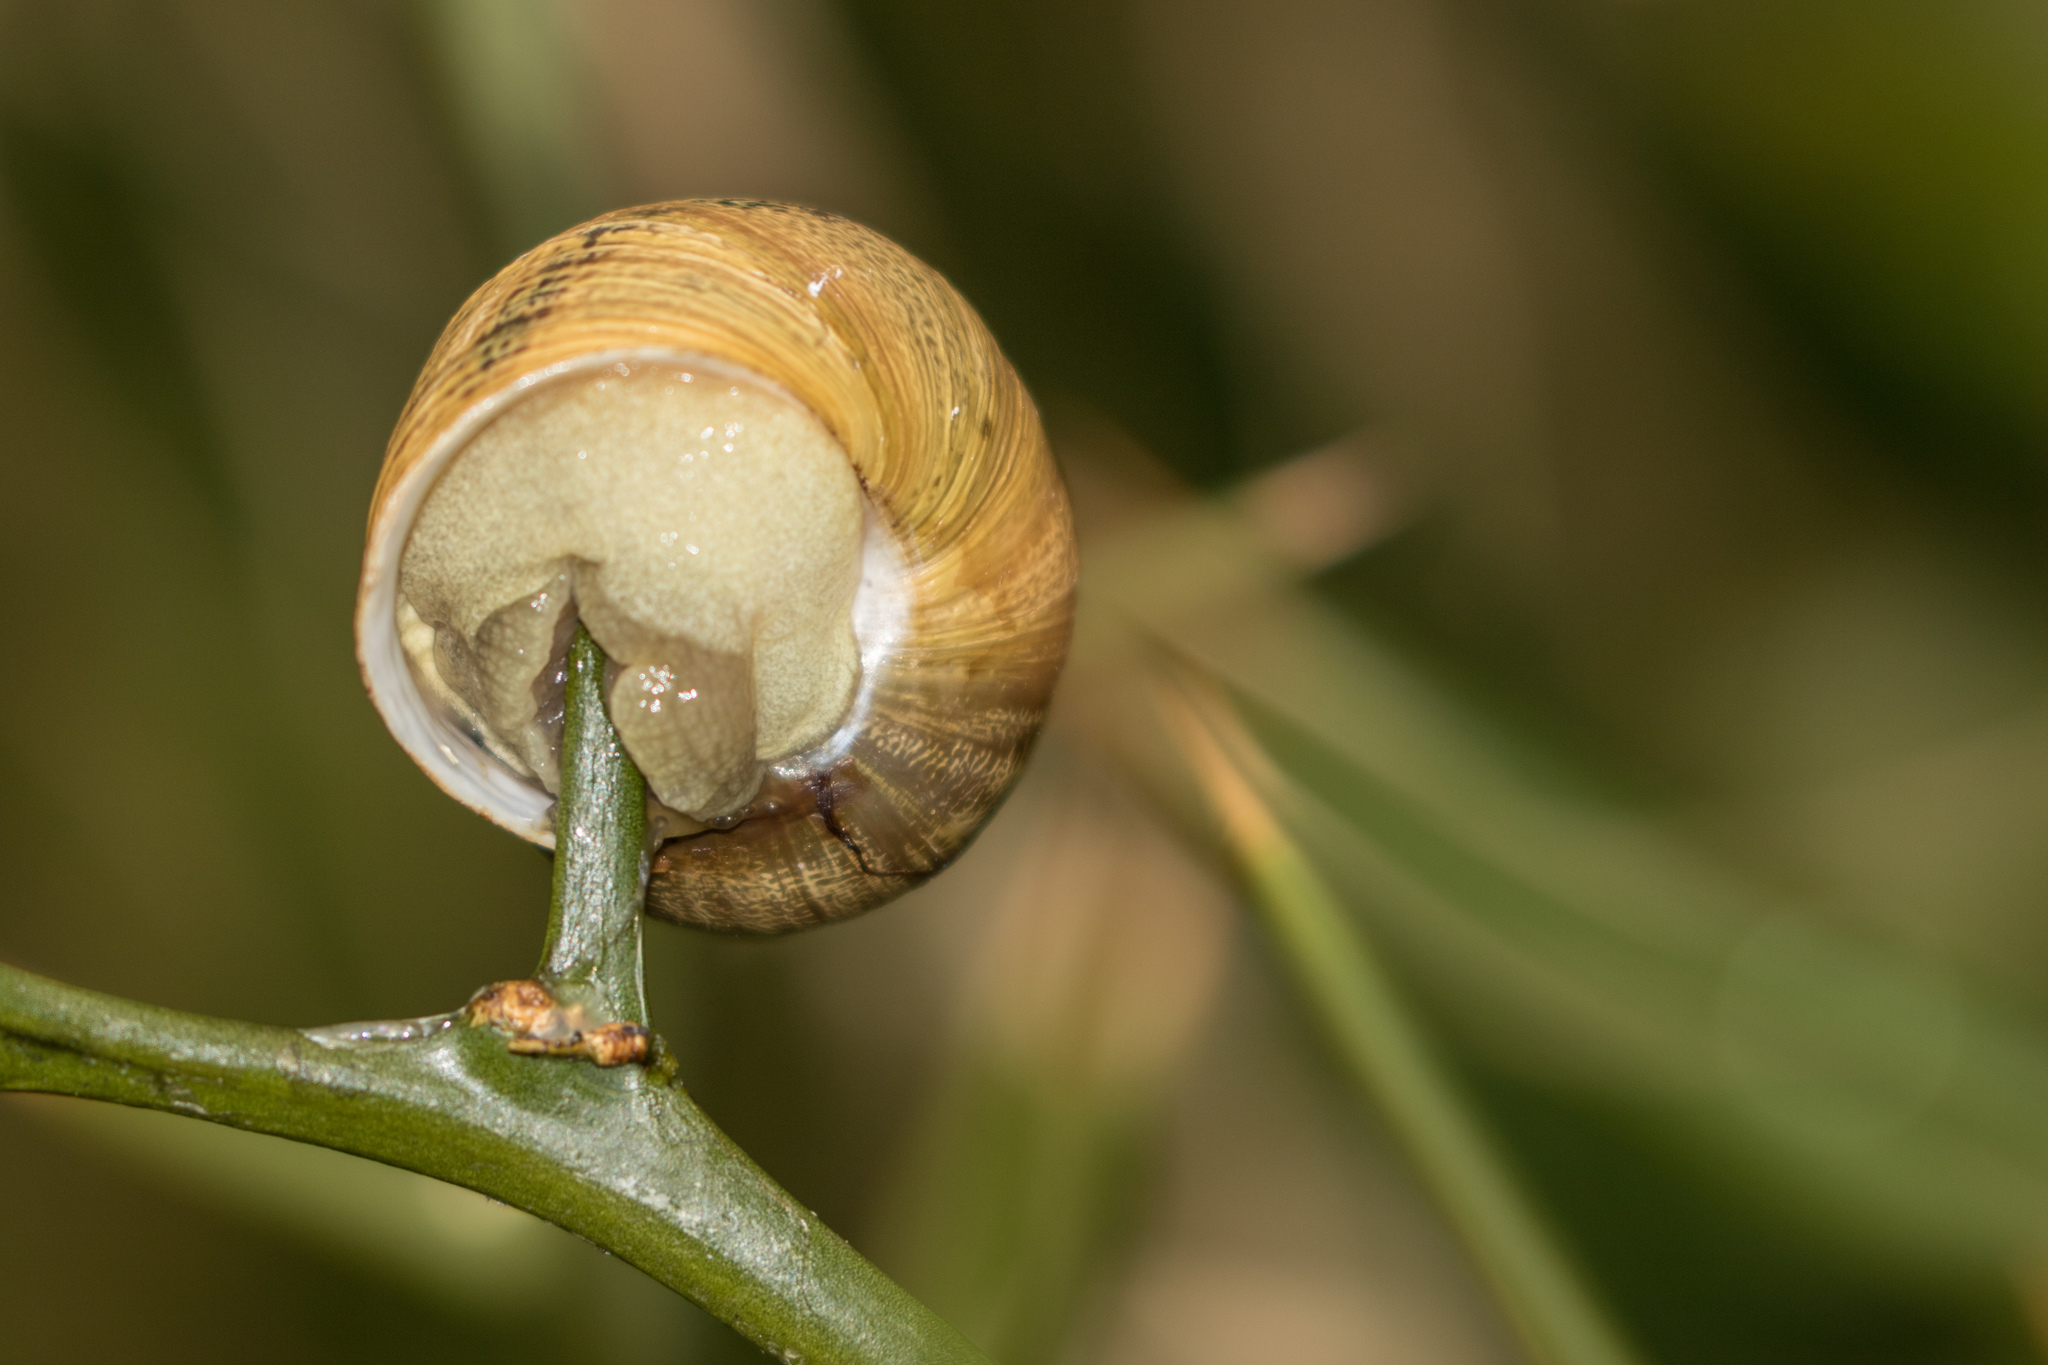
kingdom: Animalia
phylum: Mollusca
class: Gastropoda
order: Stylommatophora
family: Helicidae
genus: Cornu
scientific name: Cornu aspersum
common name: Brown garden snail
